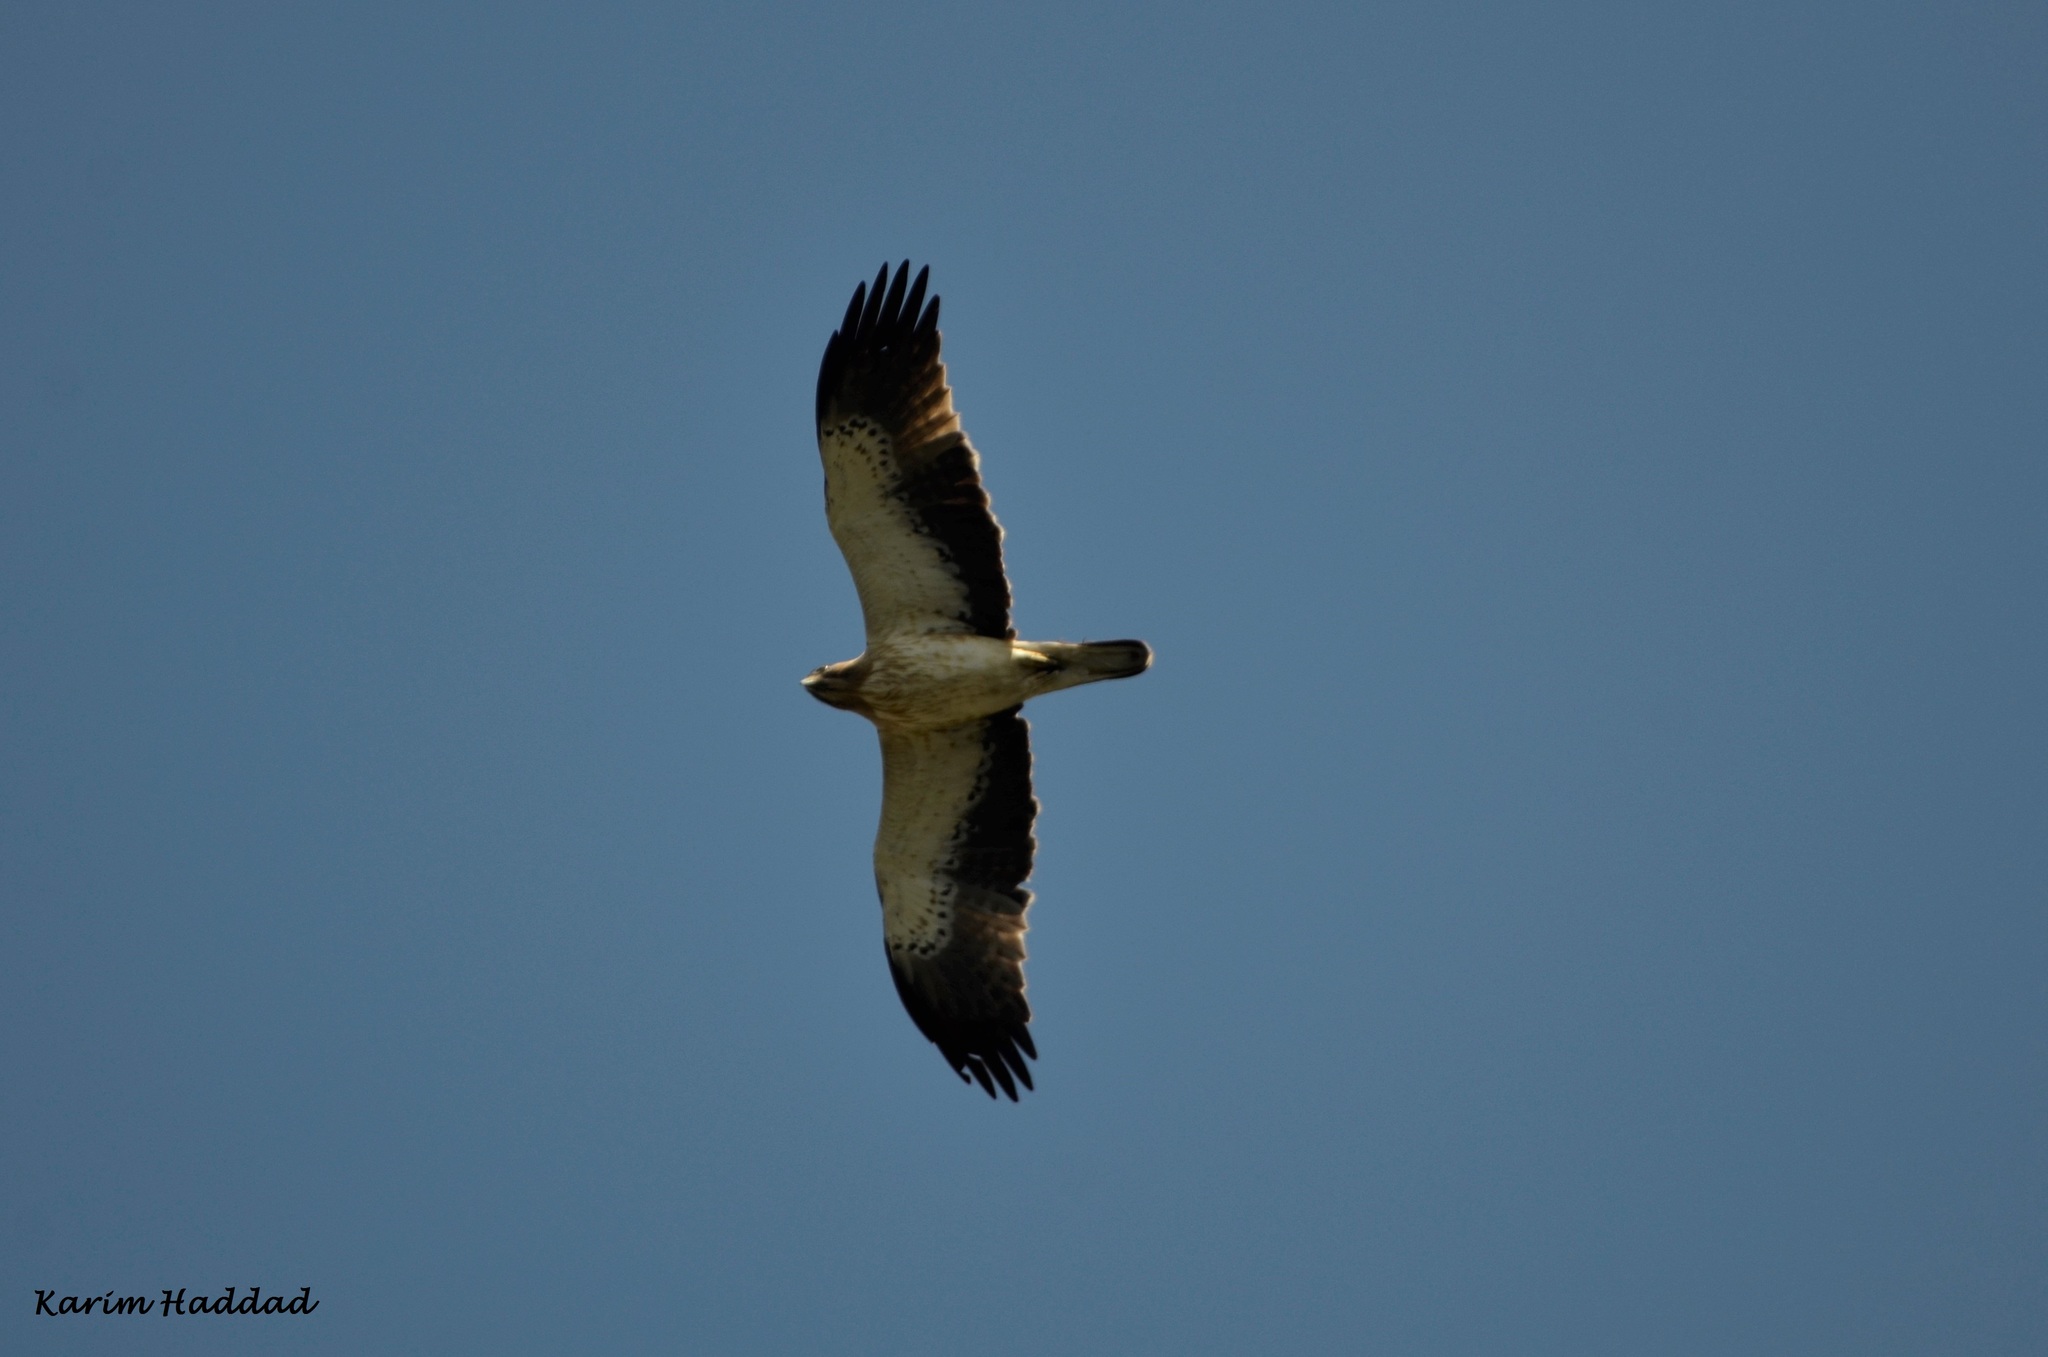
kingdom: Animalia
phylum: Chordata
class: Aves
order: Accipitriformes
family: Accipitridae
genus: Hieraaetus
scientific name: Hieraaetus pennatus
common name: Booted eagle
